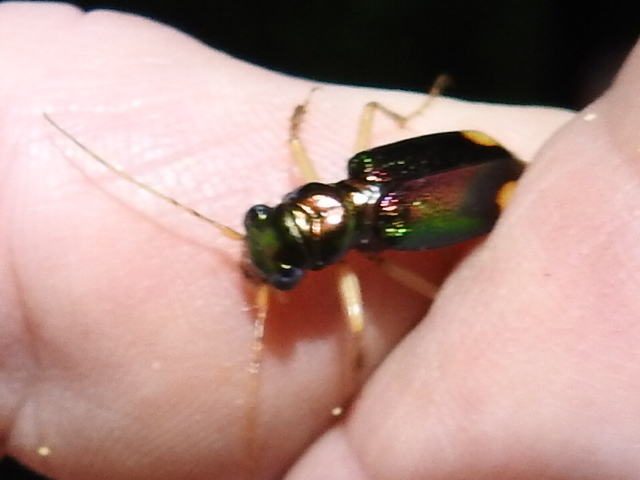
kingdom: Animalia
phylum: Arthropoda
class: Insecta
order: Coleoptera
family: Carabidae
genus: Tetracha
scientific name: Tetracha carolina
